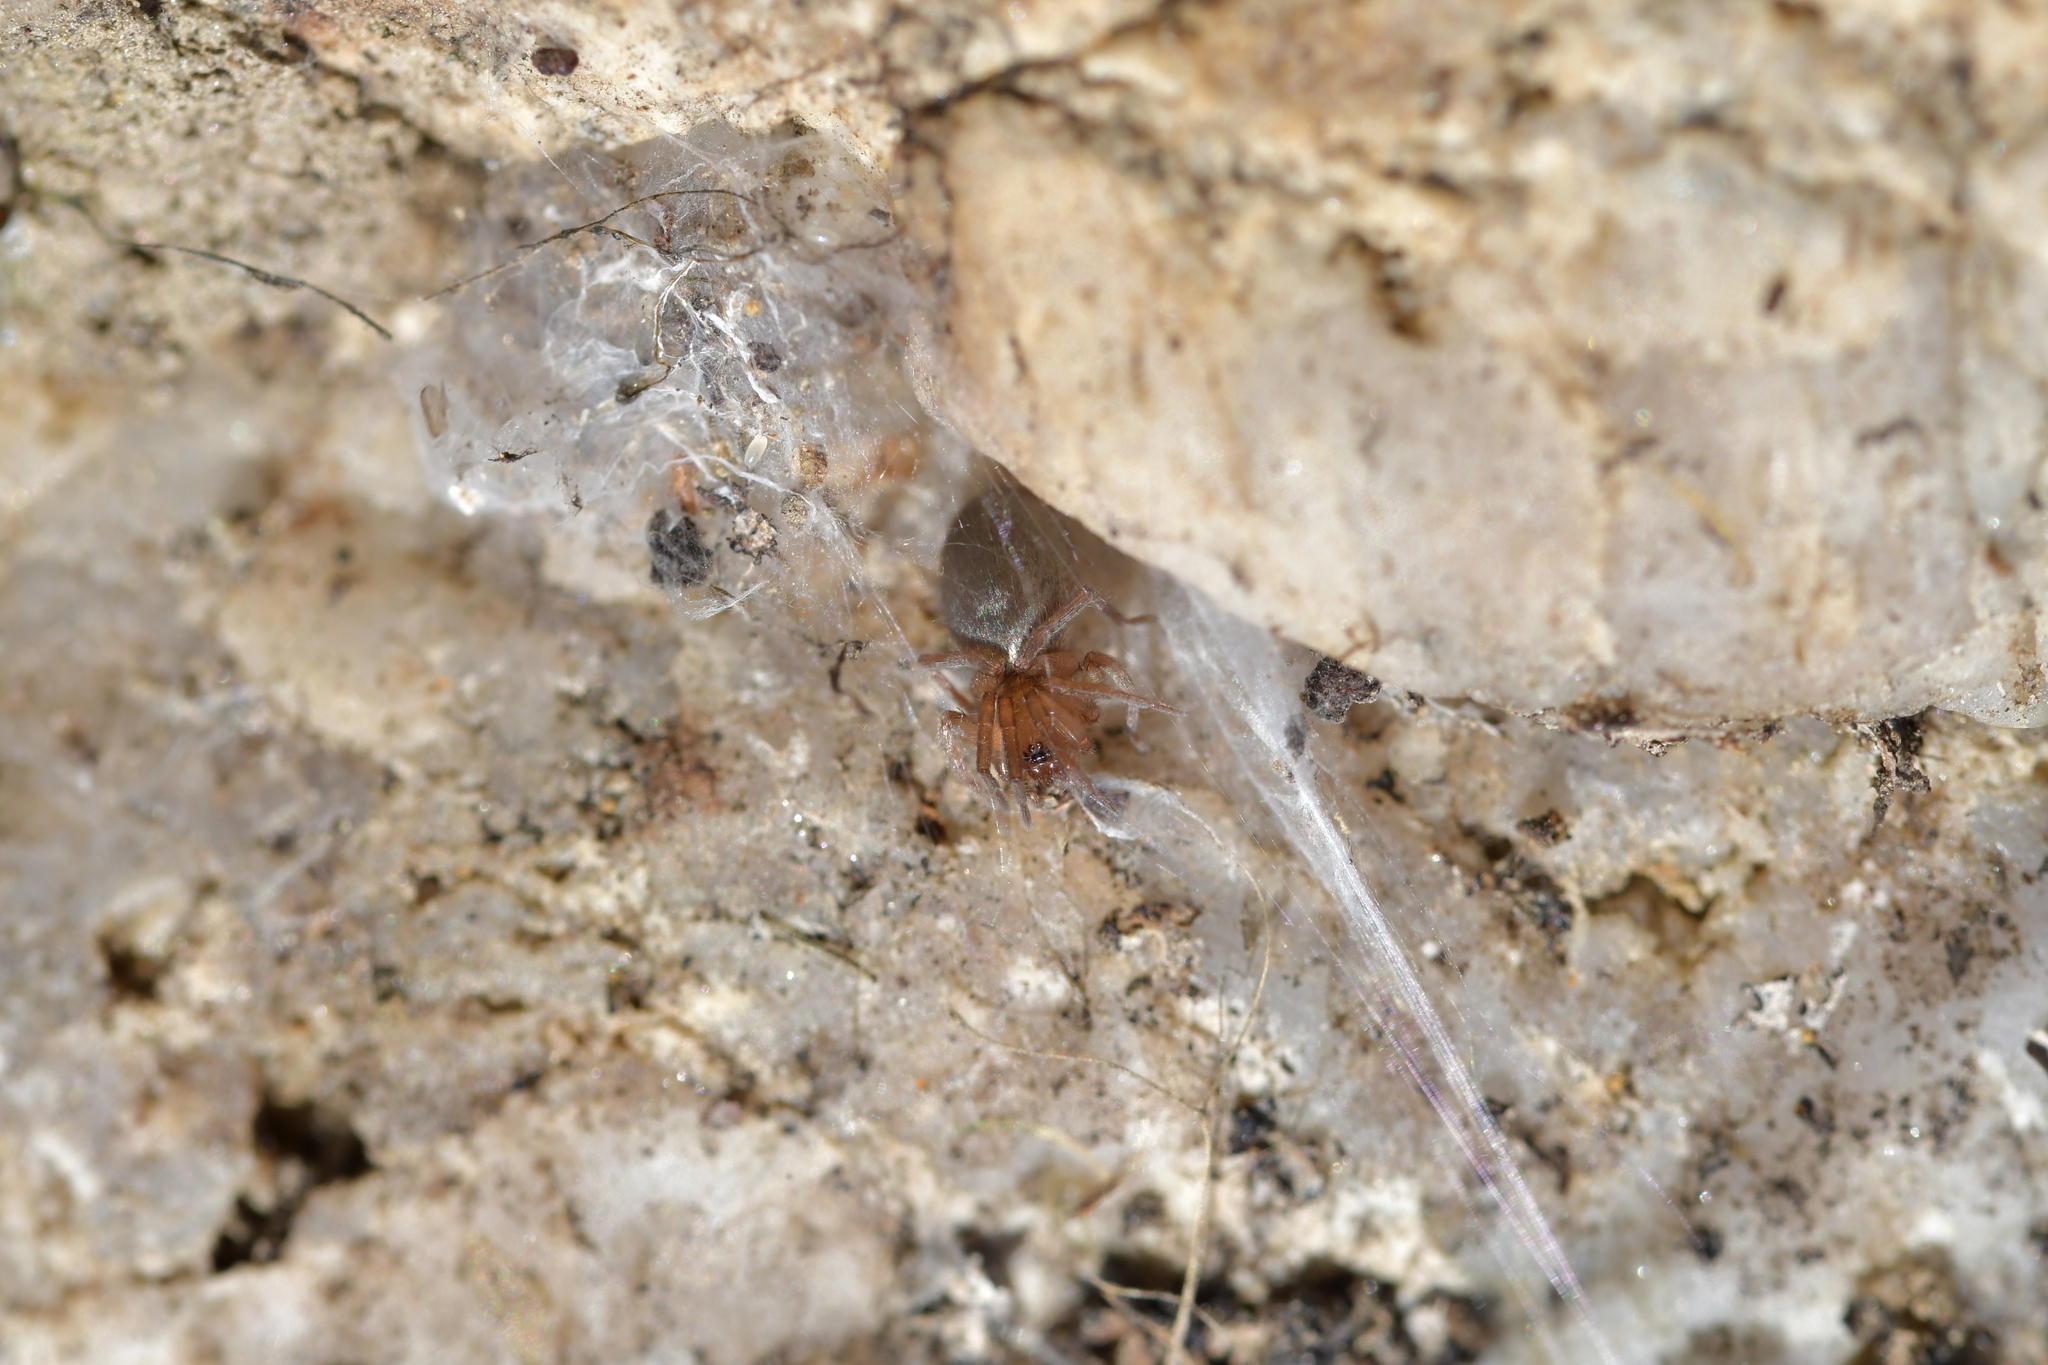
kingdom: Animalia
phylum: Arthropoda
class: Arachnida
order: Araneae
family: Gnaphosidae
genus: Anzacia
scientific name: Anzacia gemmea
